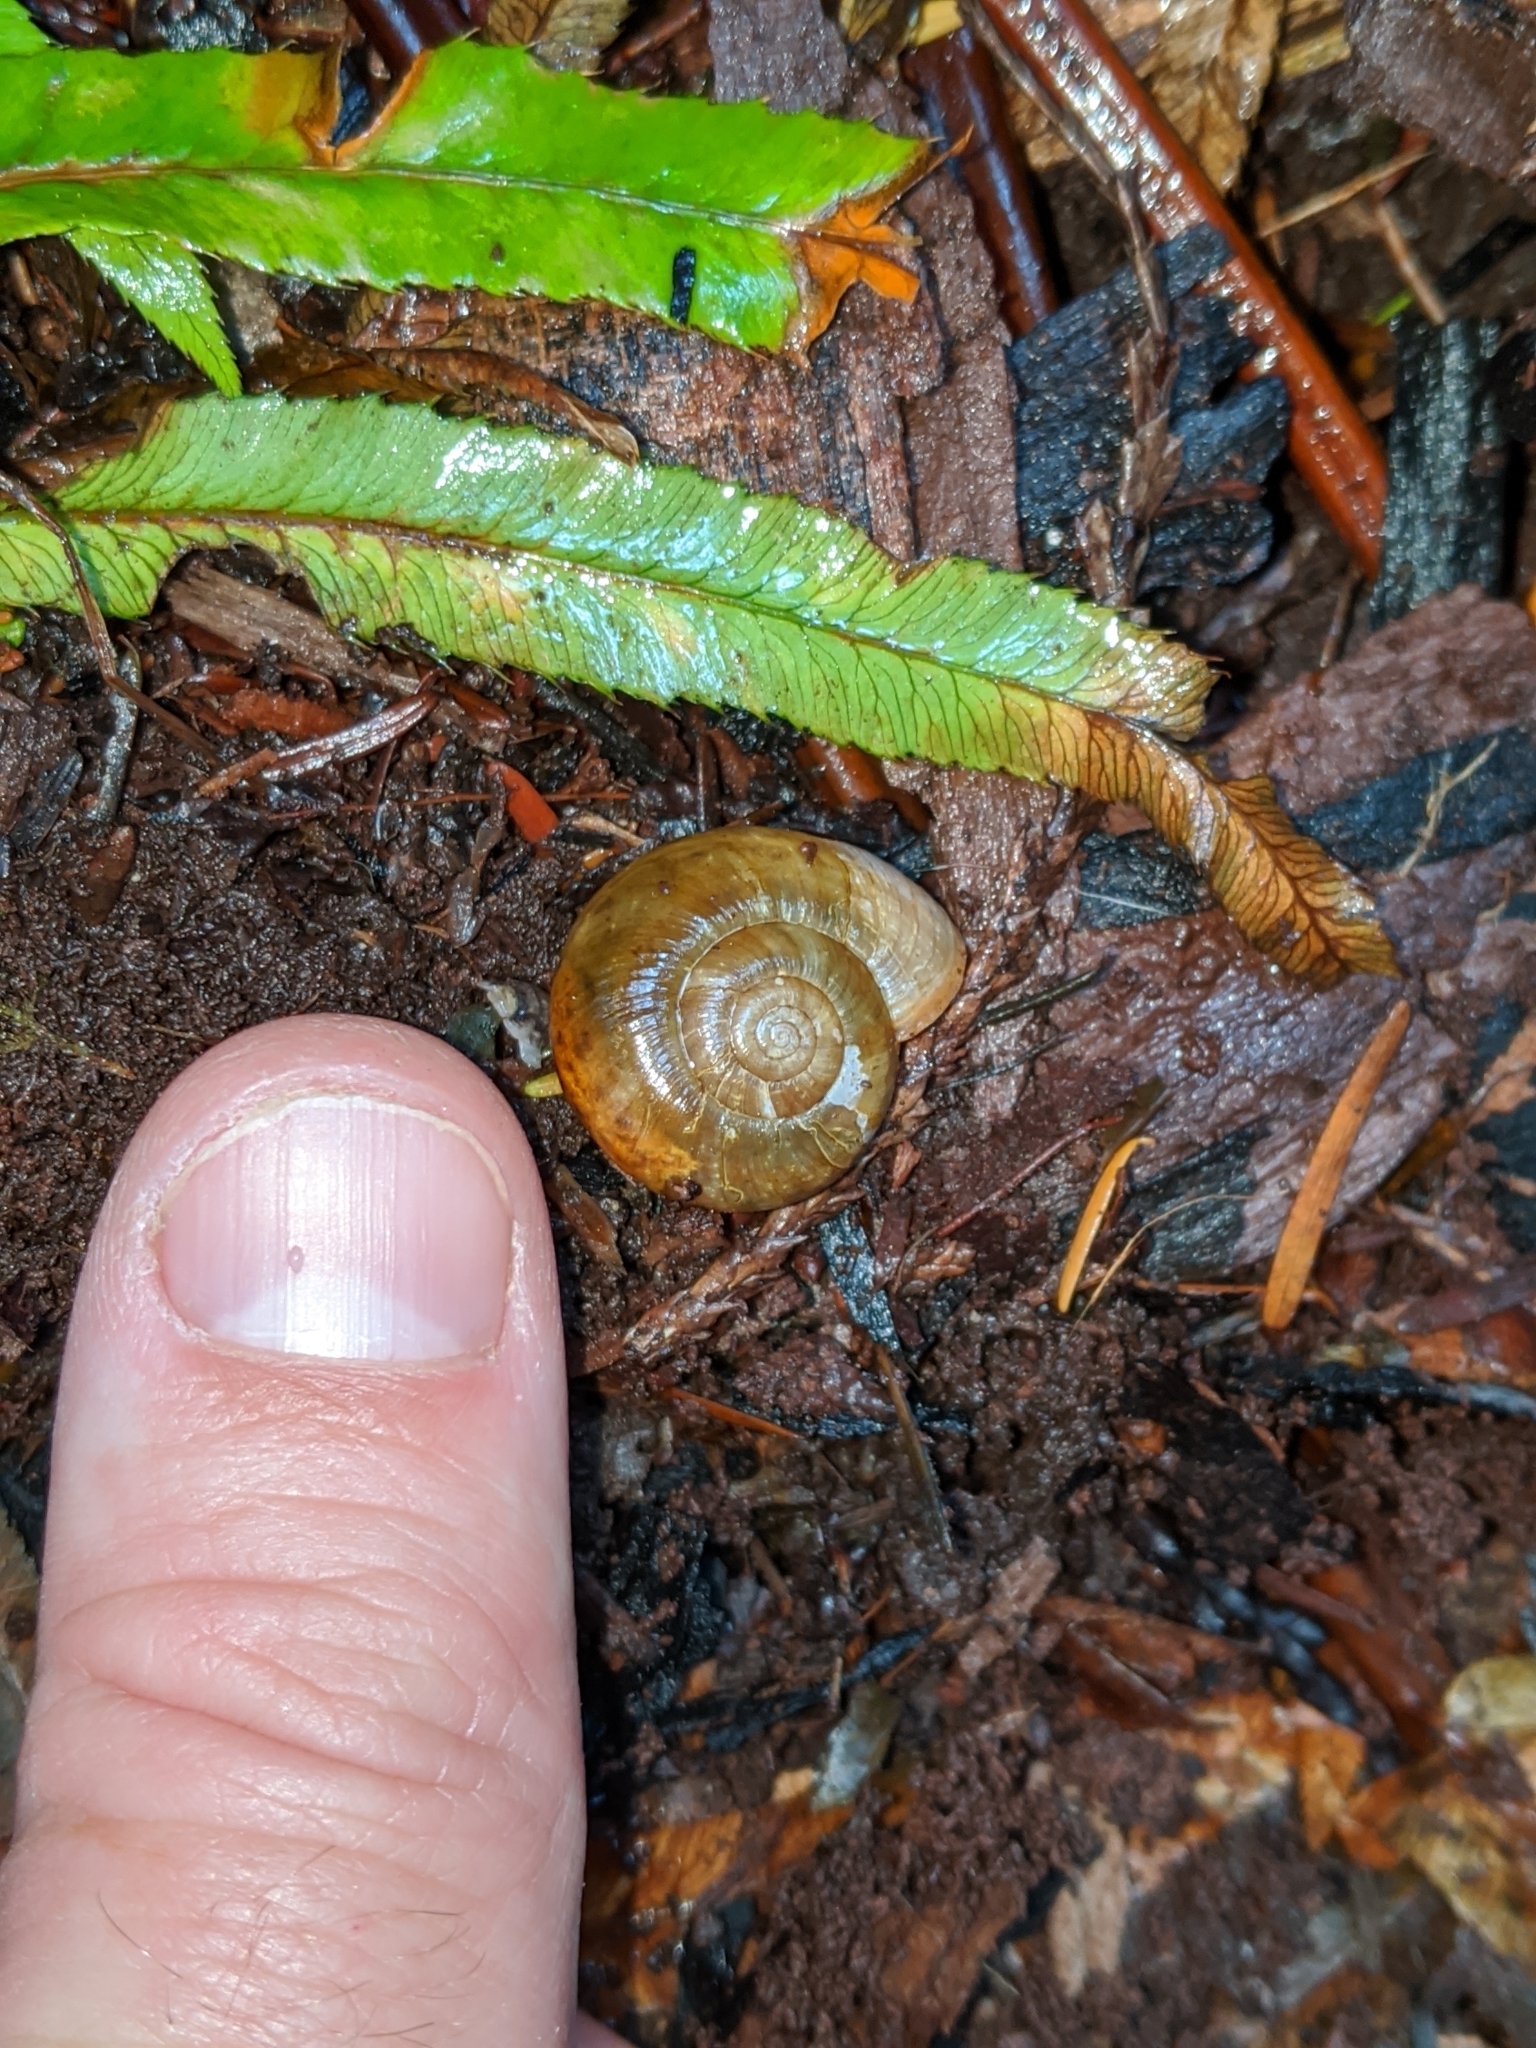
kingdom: Animalia
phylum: Mollusca
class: Gastropoda
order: Stylommatophora
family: Haplotrematidae
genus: Haplotrema
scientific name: Haplotrema vancouverense
